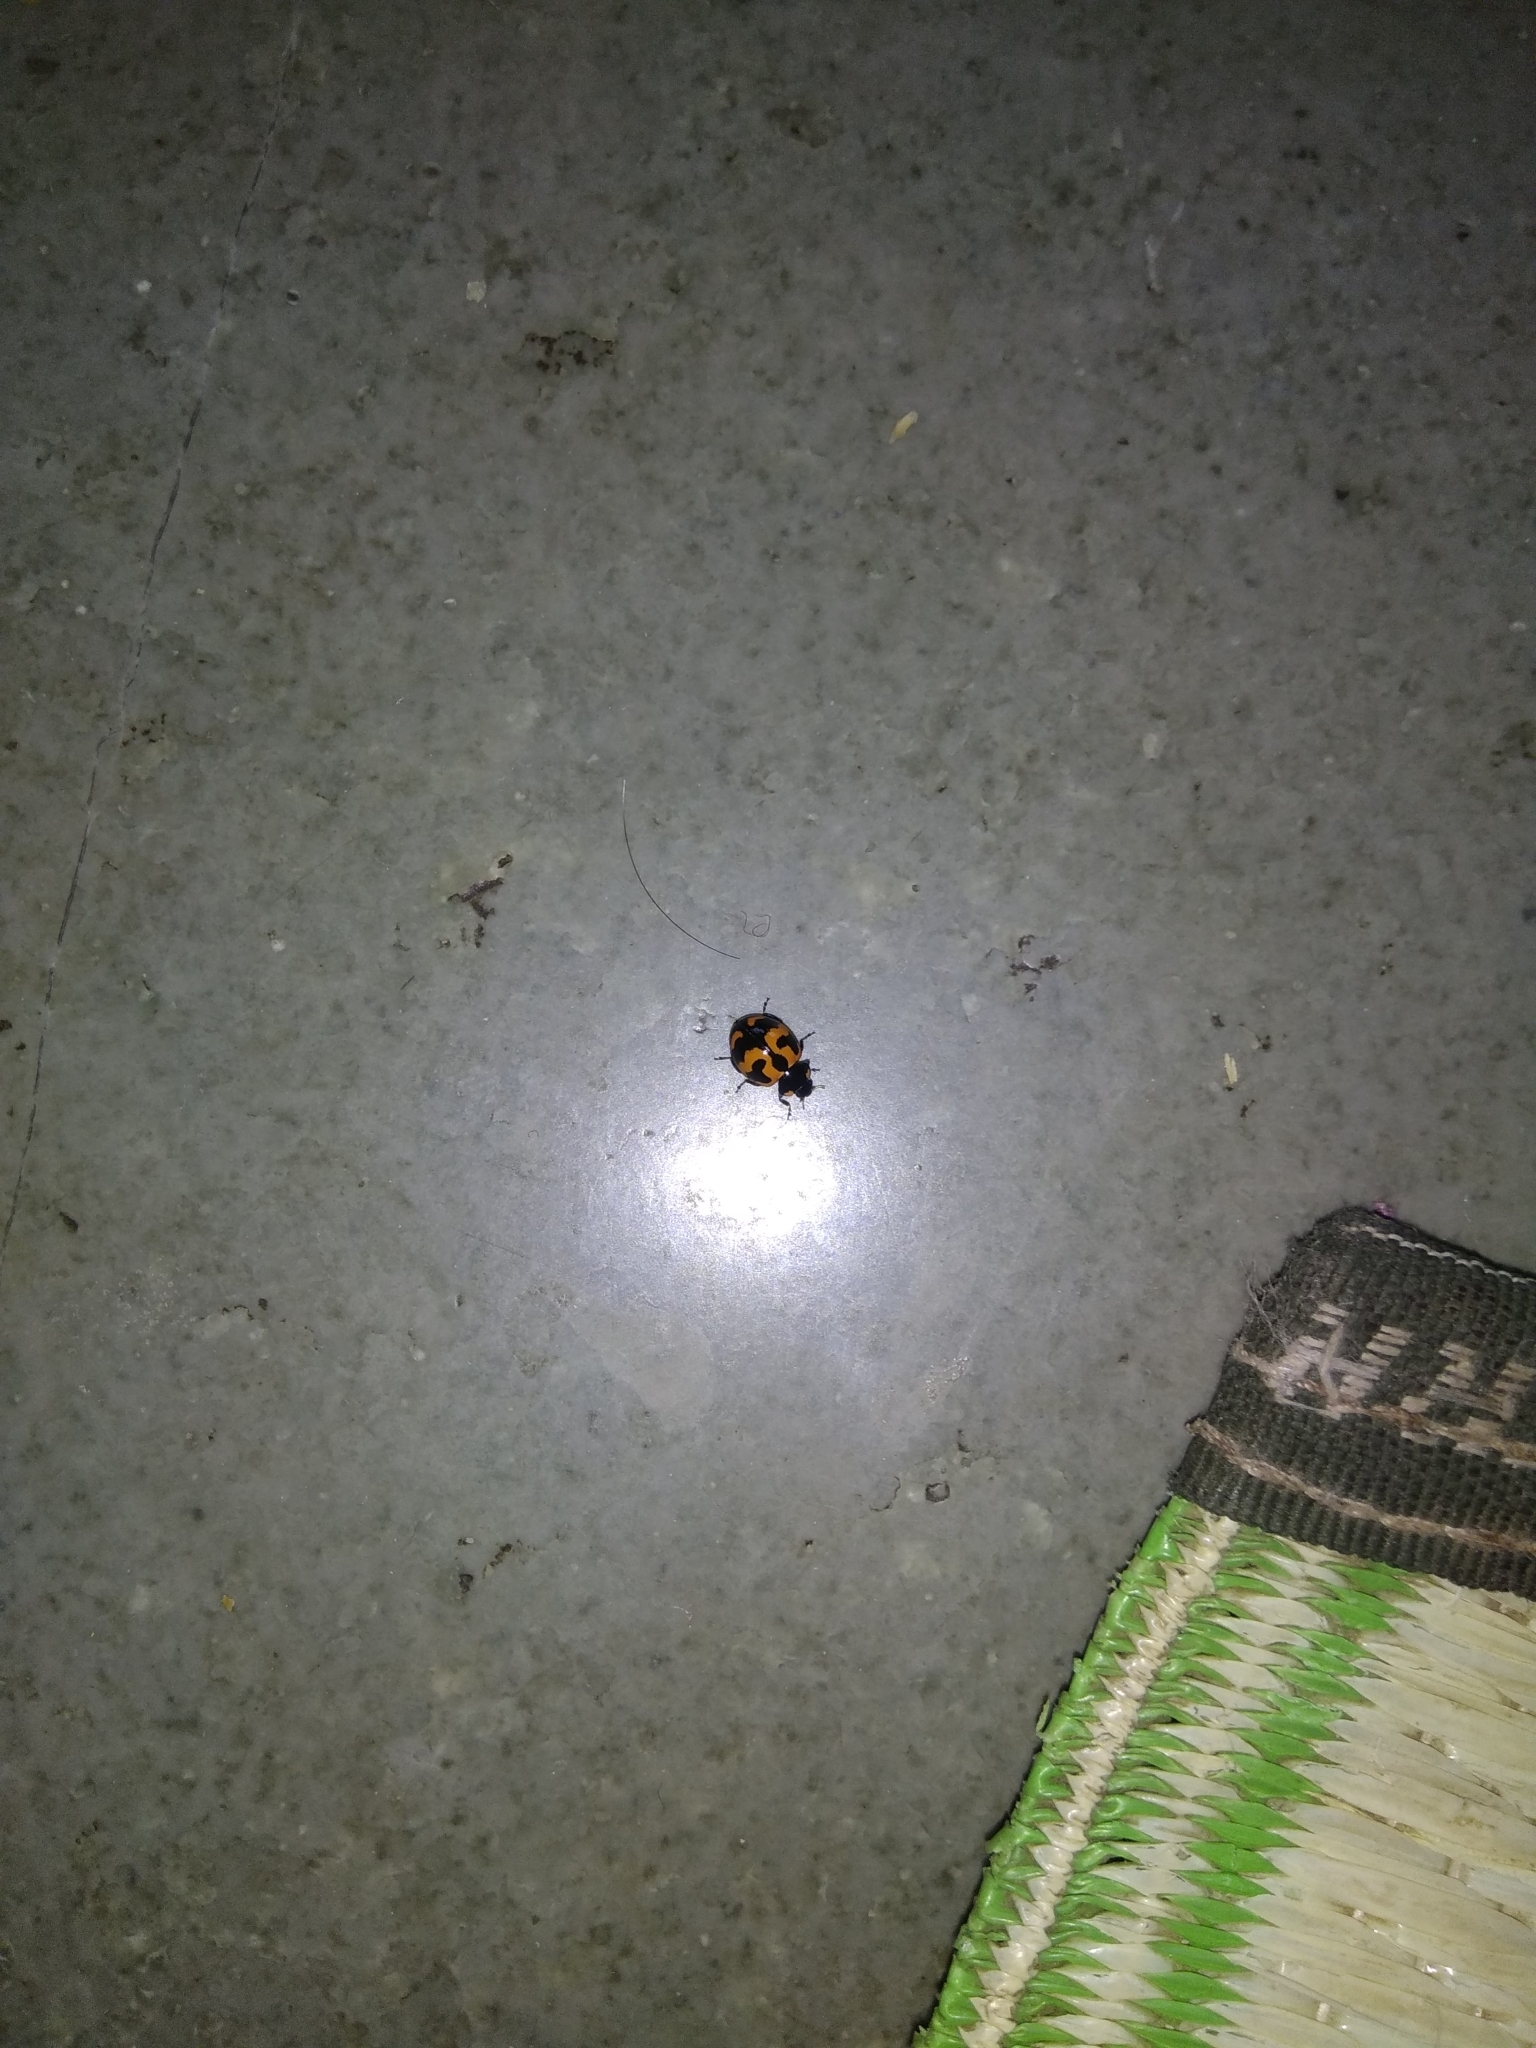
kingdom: Animalia
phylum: Arthropoda
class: Insecta
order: Coleoptera
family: Coccinellidae
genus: Coccinella
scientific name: Coccinella transversalis
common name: Transverse lady beetle
